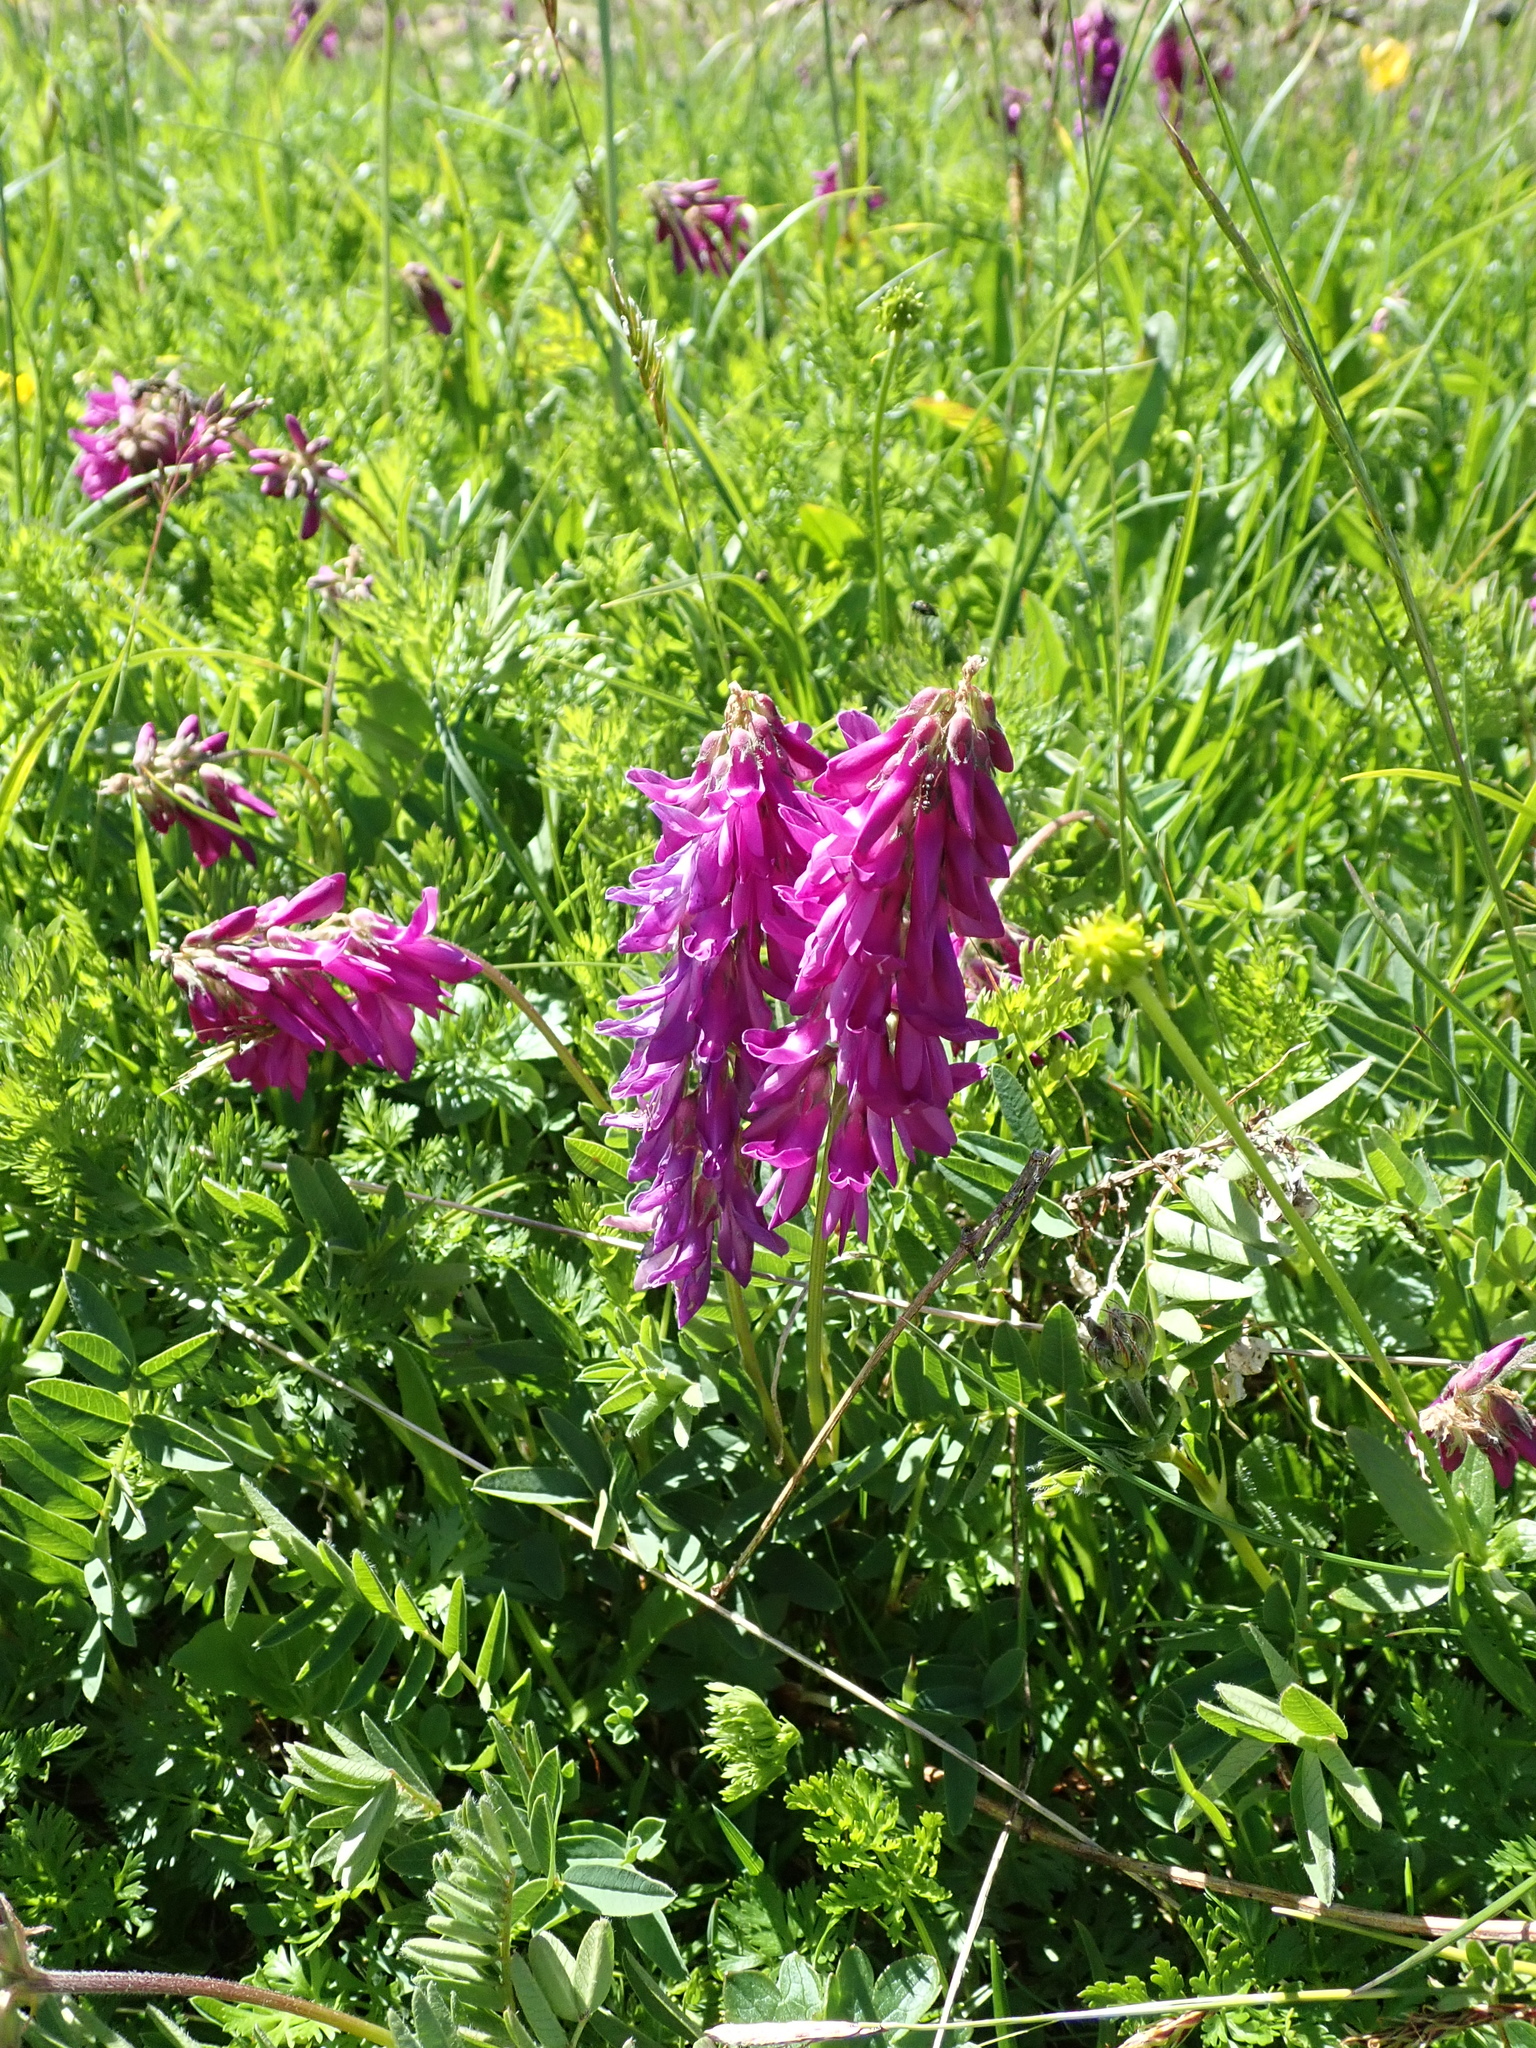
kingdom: Plantae
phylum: Tracheophyta
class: Magnoliopsida
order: Fabales
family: Fabaceae
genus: Hedysarum
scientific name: Hedysarum hedysaroides
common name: Alpine french-honeysuckle
